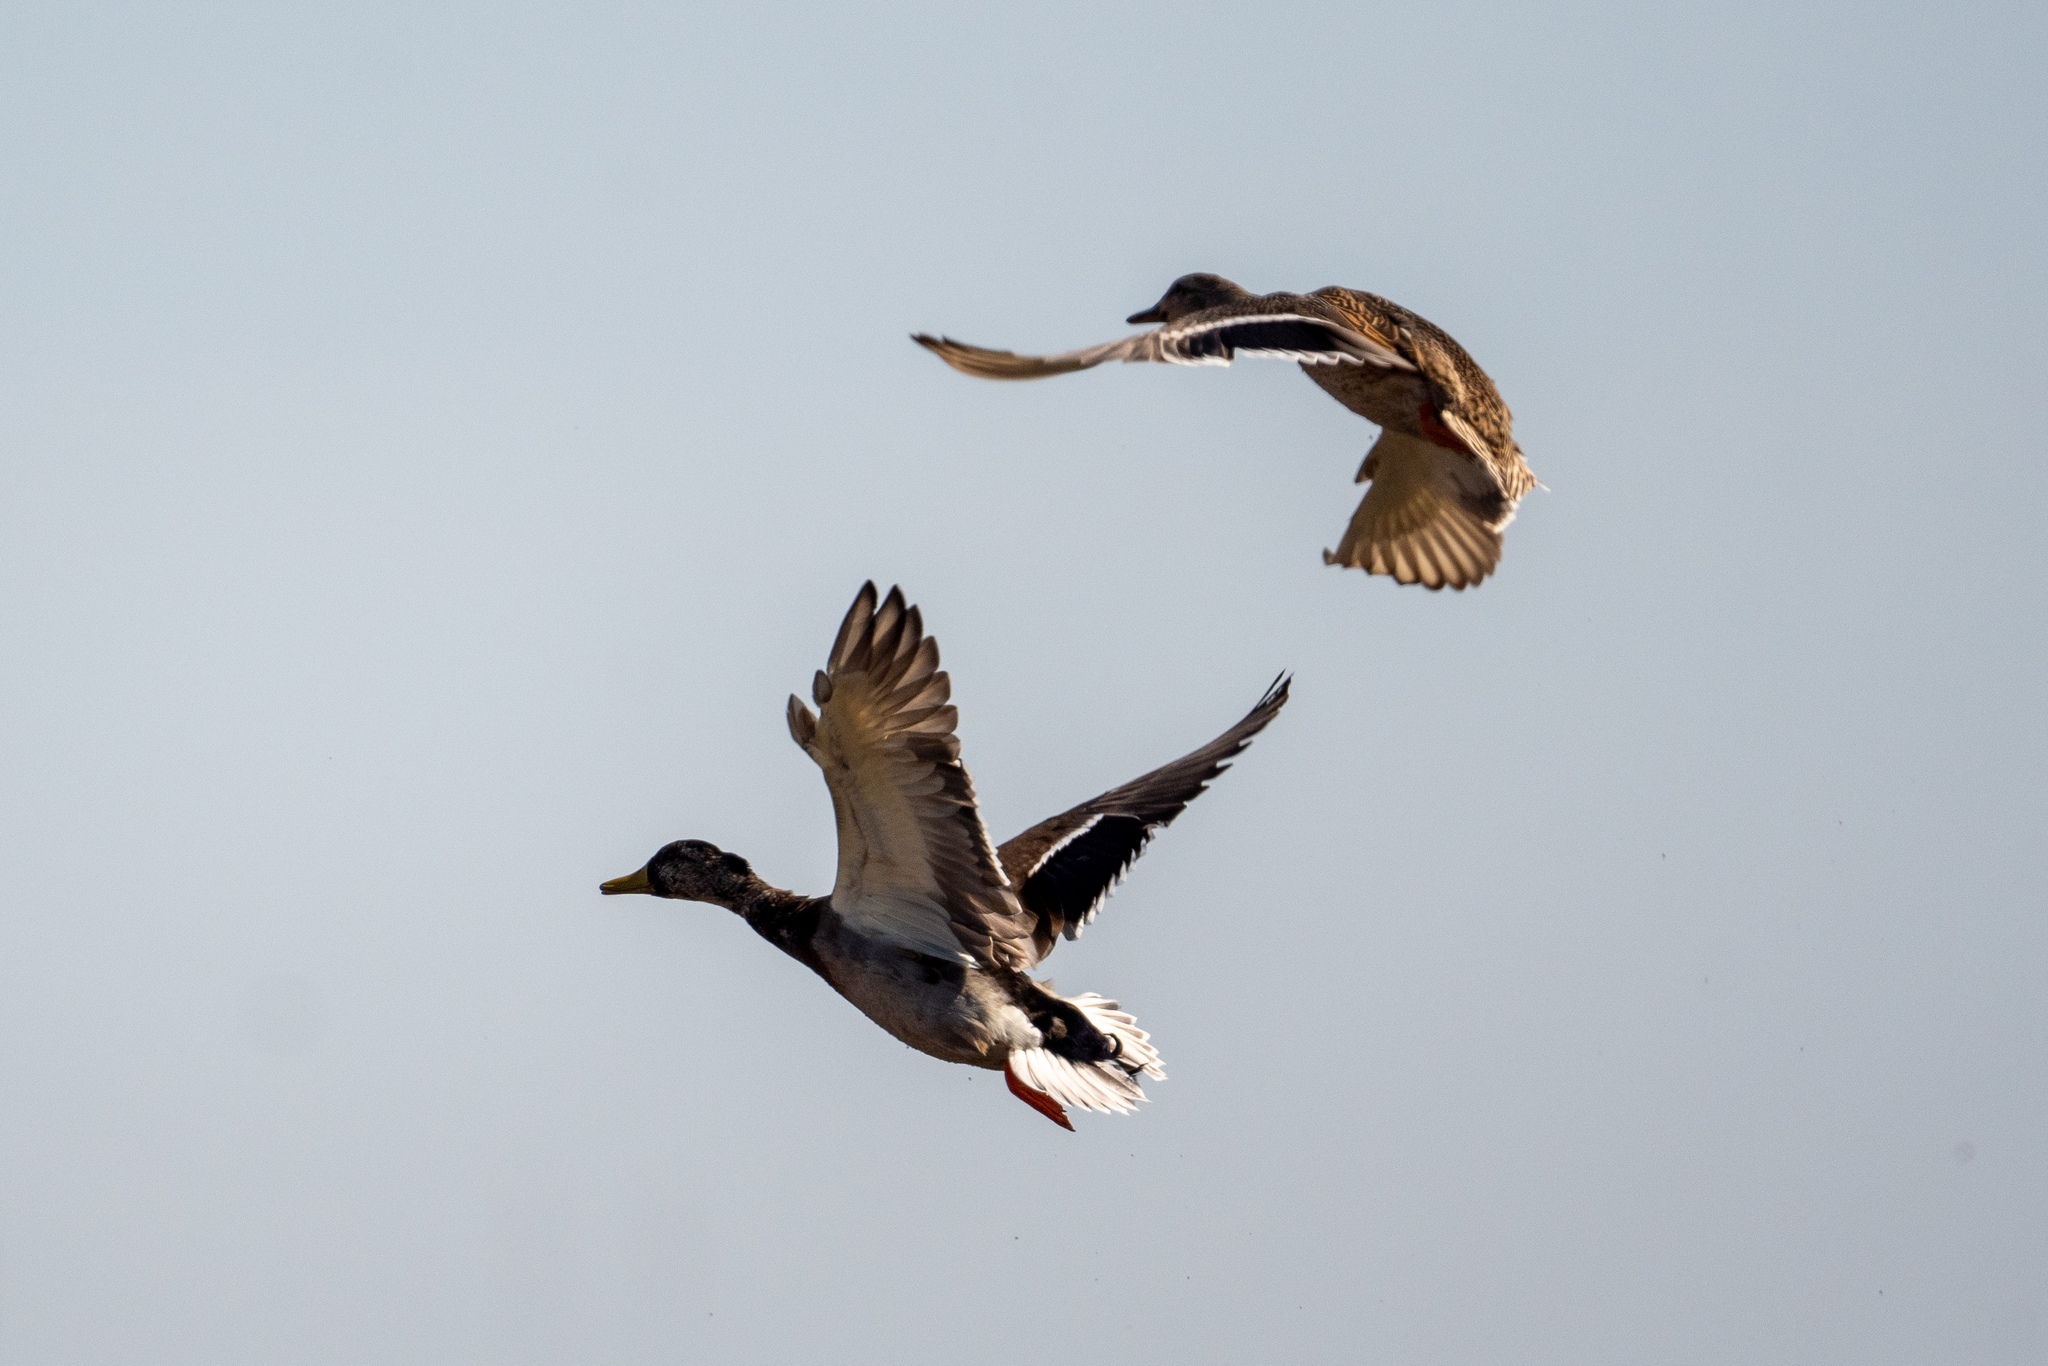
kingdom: Animalia
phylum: Chordata
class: Aves
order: Anseriformes
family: Anatidae
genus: Anas
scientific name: Anas platyrhynchos
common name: Mallard
